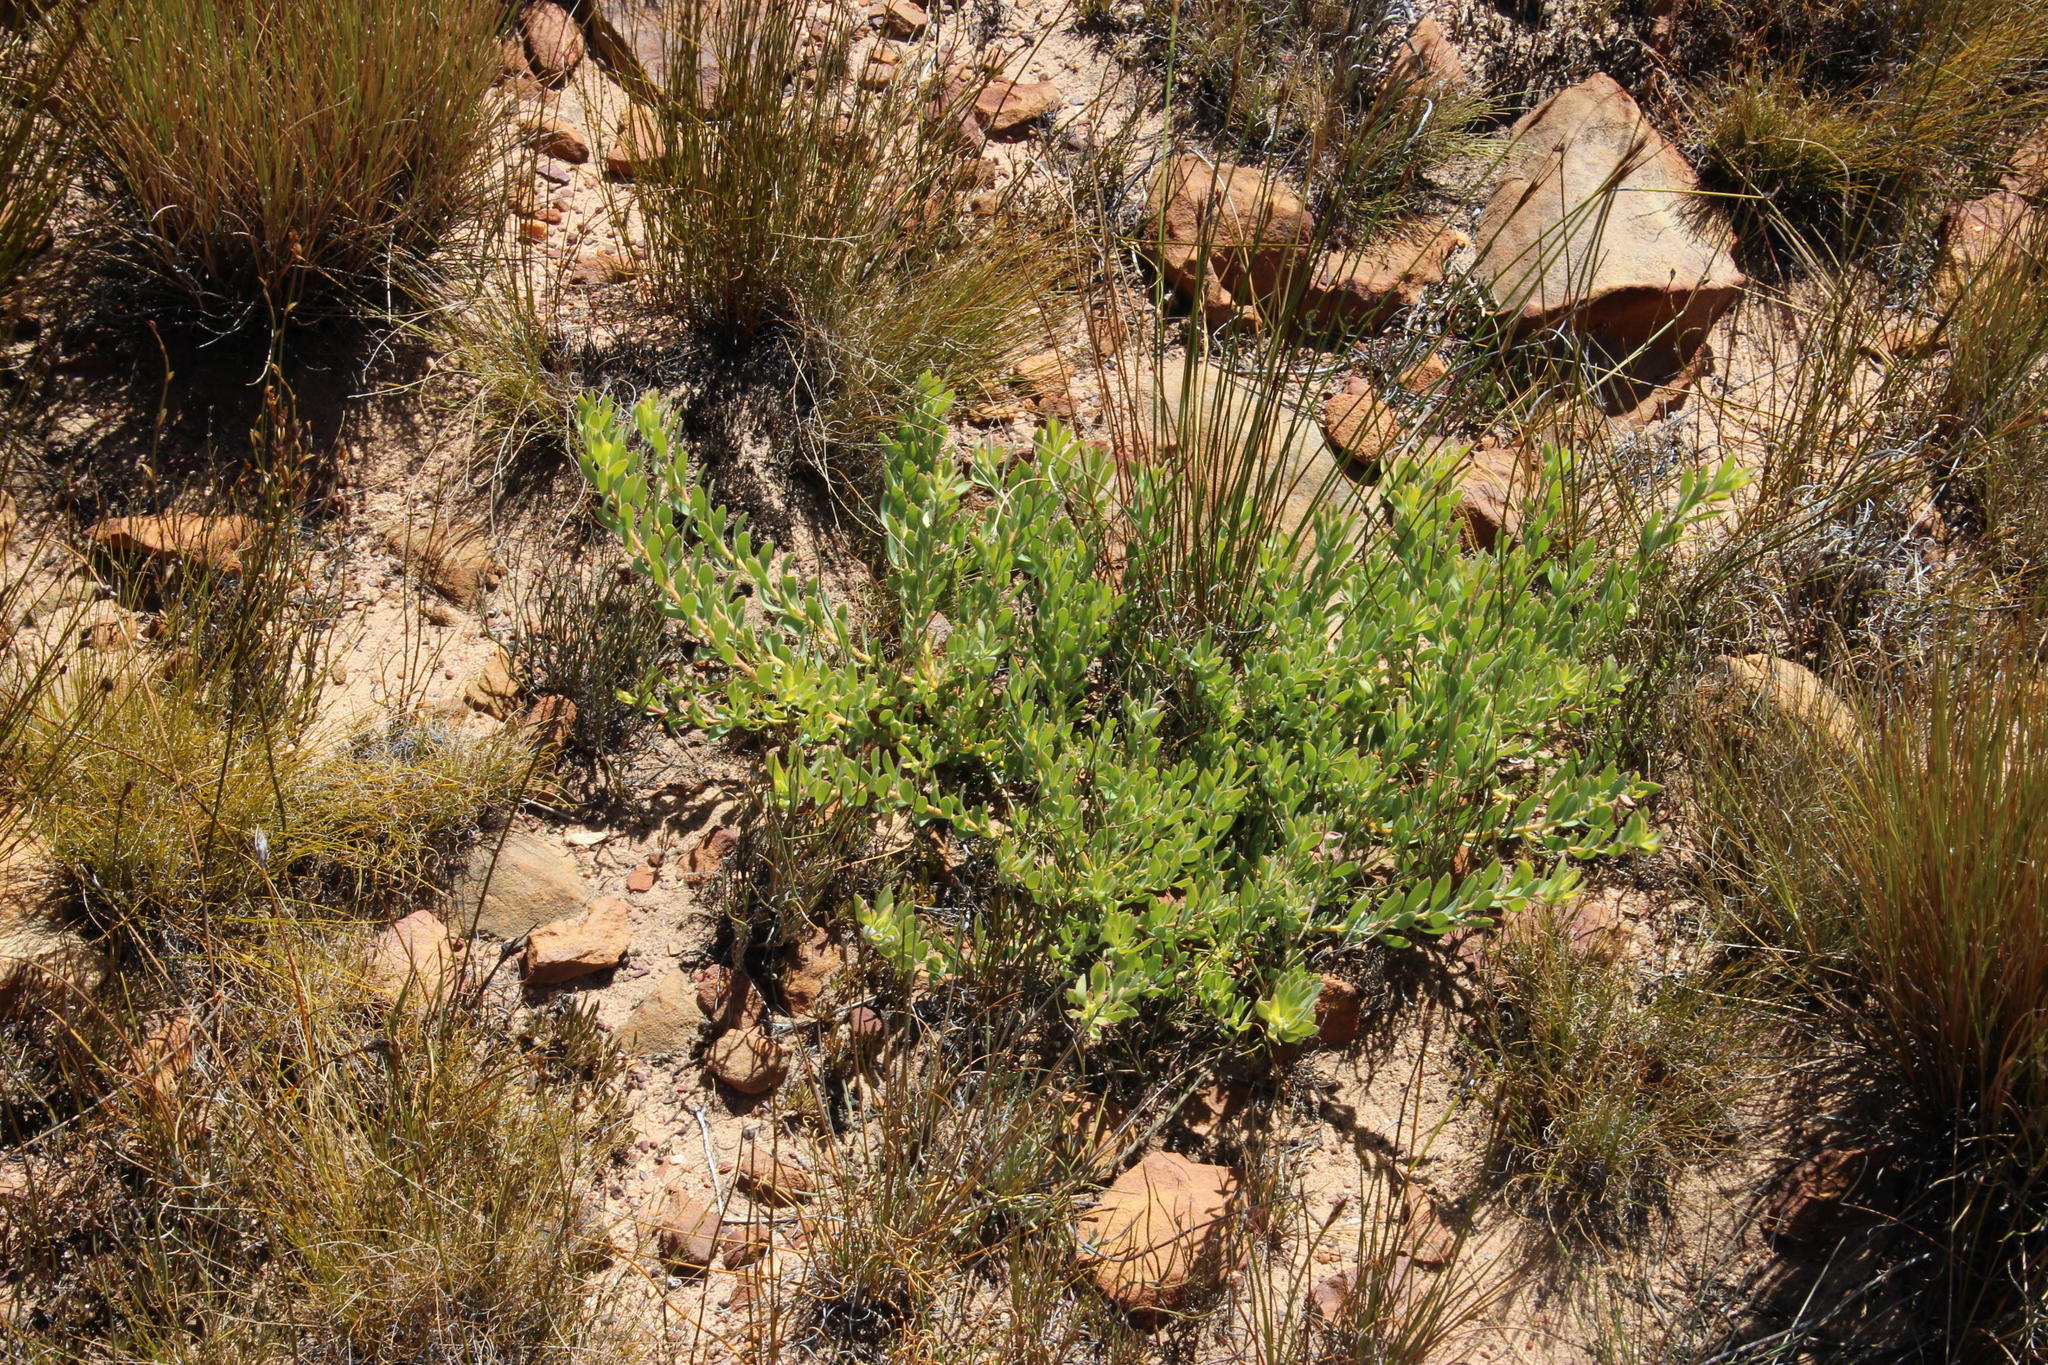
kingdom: Plantae
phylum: Tracheophyta
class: Magnoliopsida
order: Proteales
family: Proteaceae
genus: Leucadendron
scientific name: Leucadendron glaberrimum
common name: Common oily conebush
